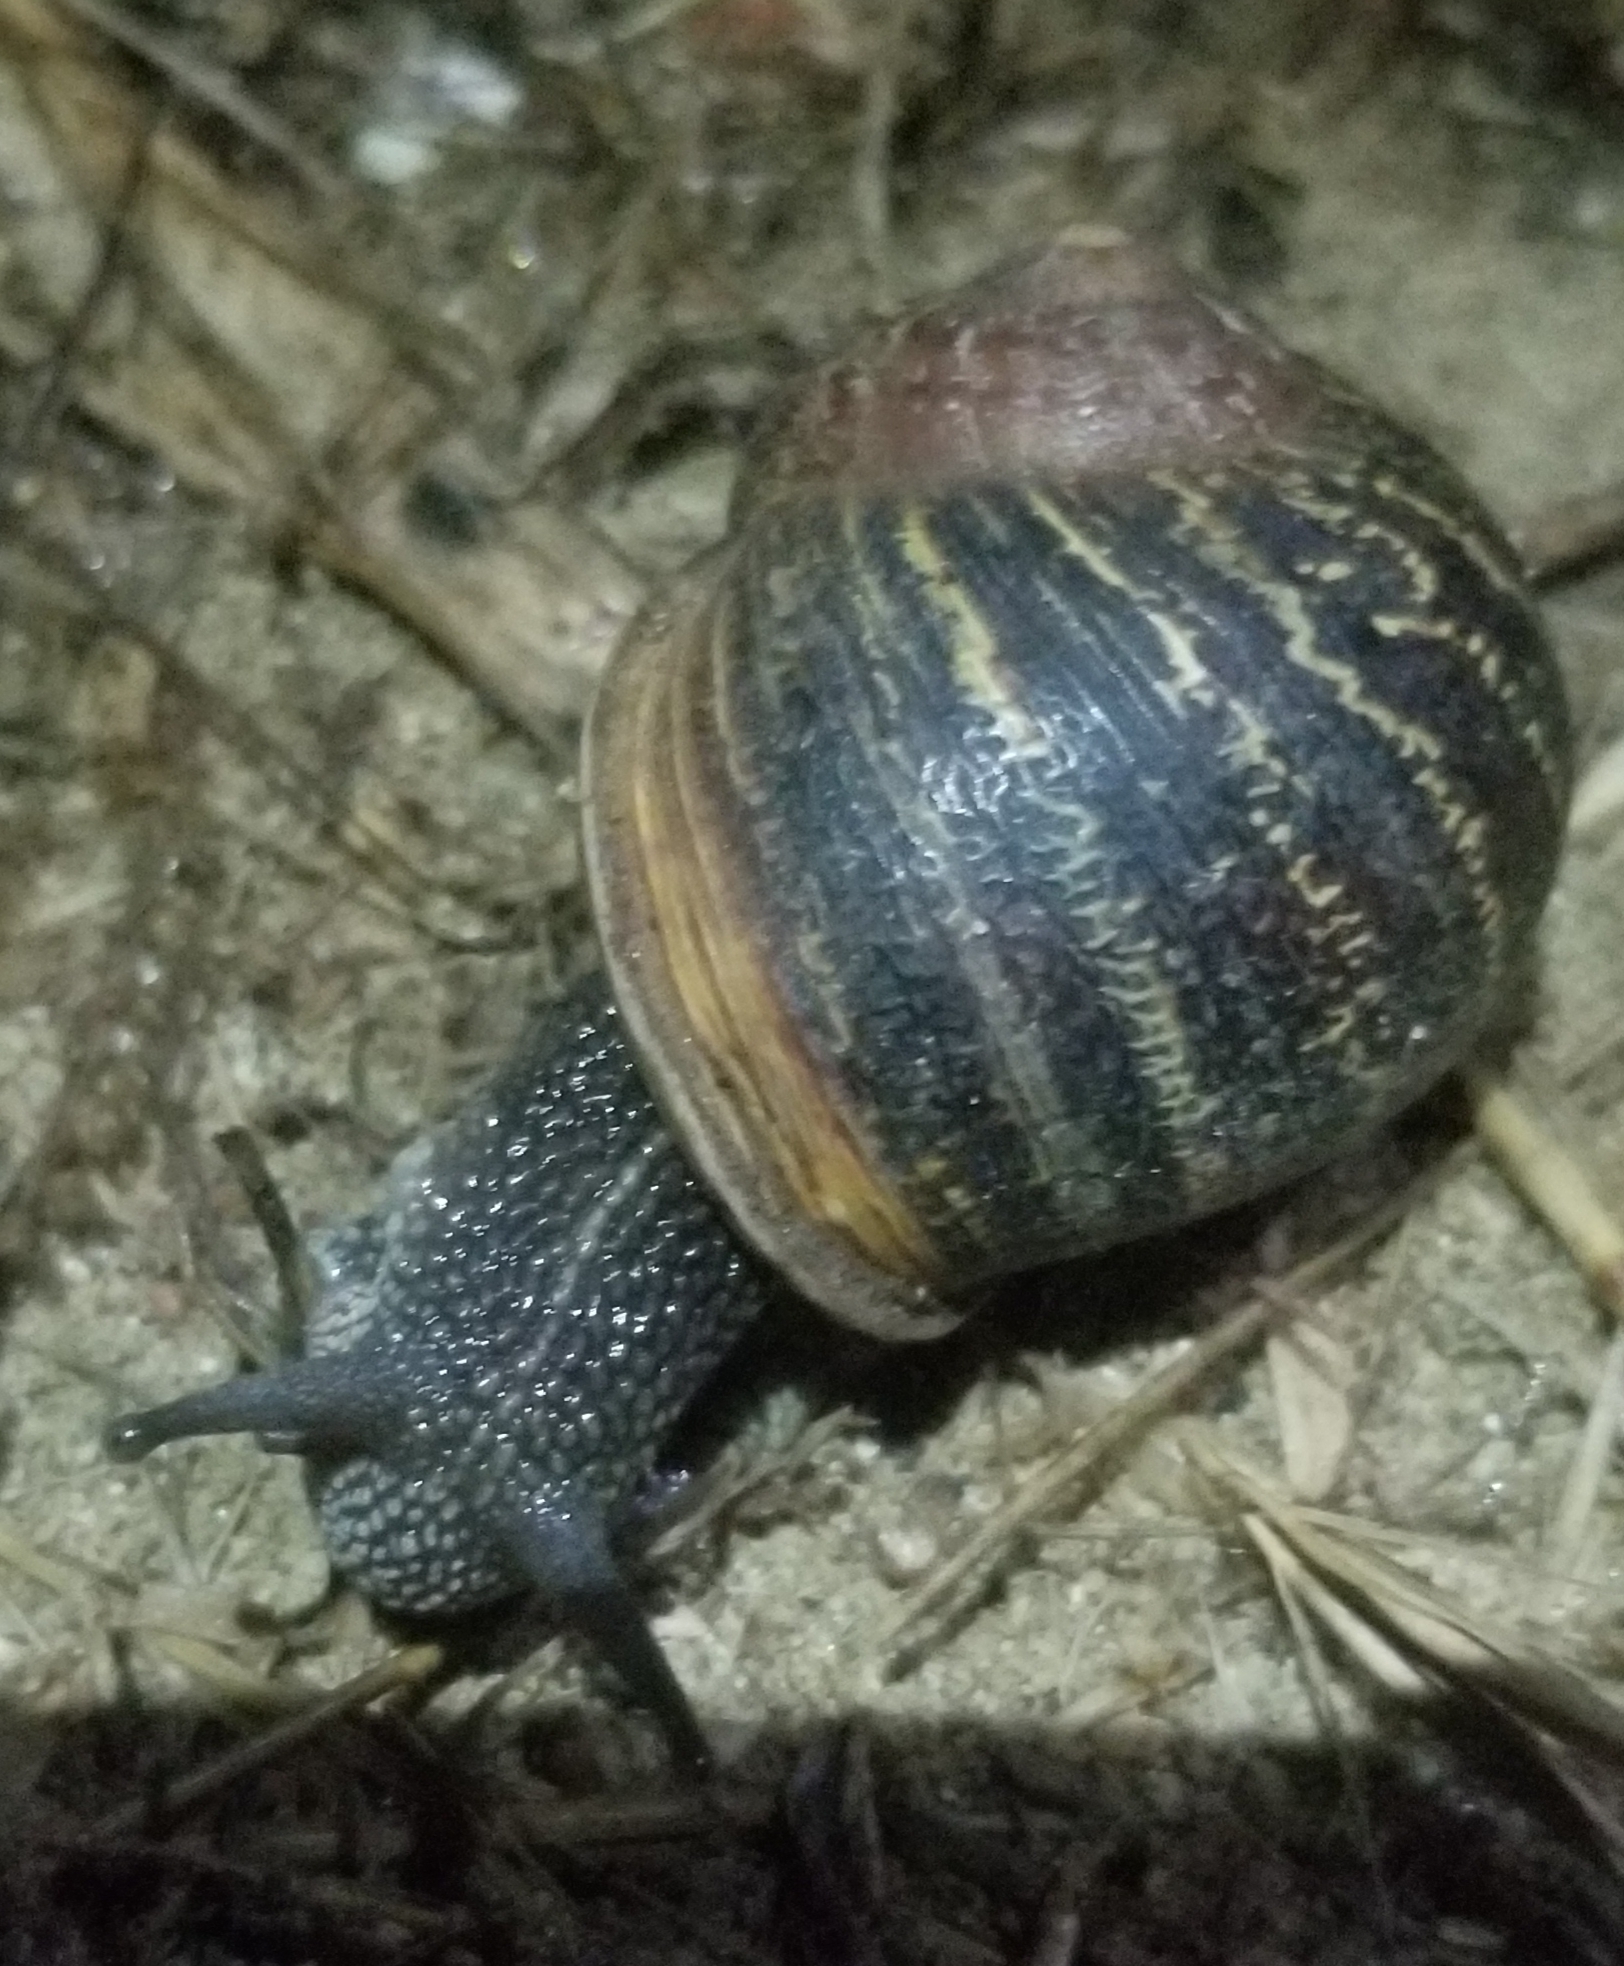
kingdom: Animalia
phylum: Mollusca
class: Gastropoda
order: Stylommatophora
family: Helicidae
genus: Cornu
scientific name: Cornu aspersum
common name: Brown garden snail
